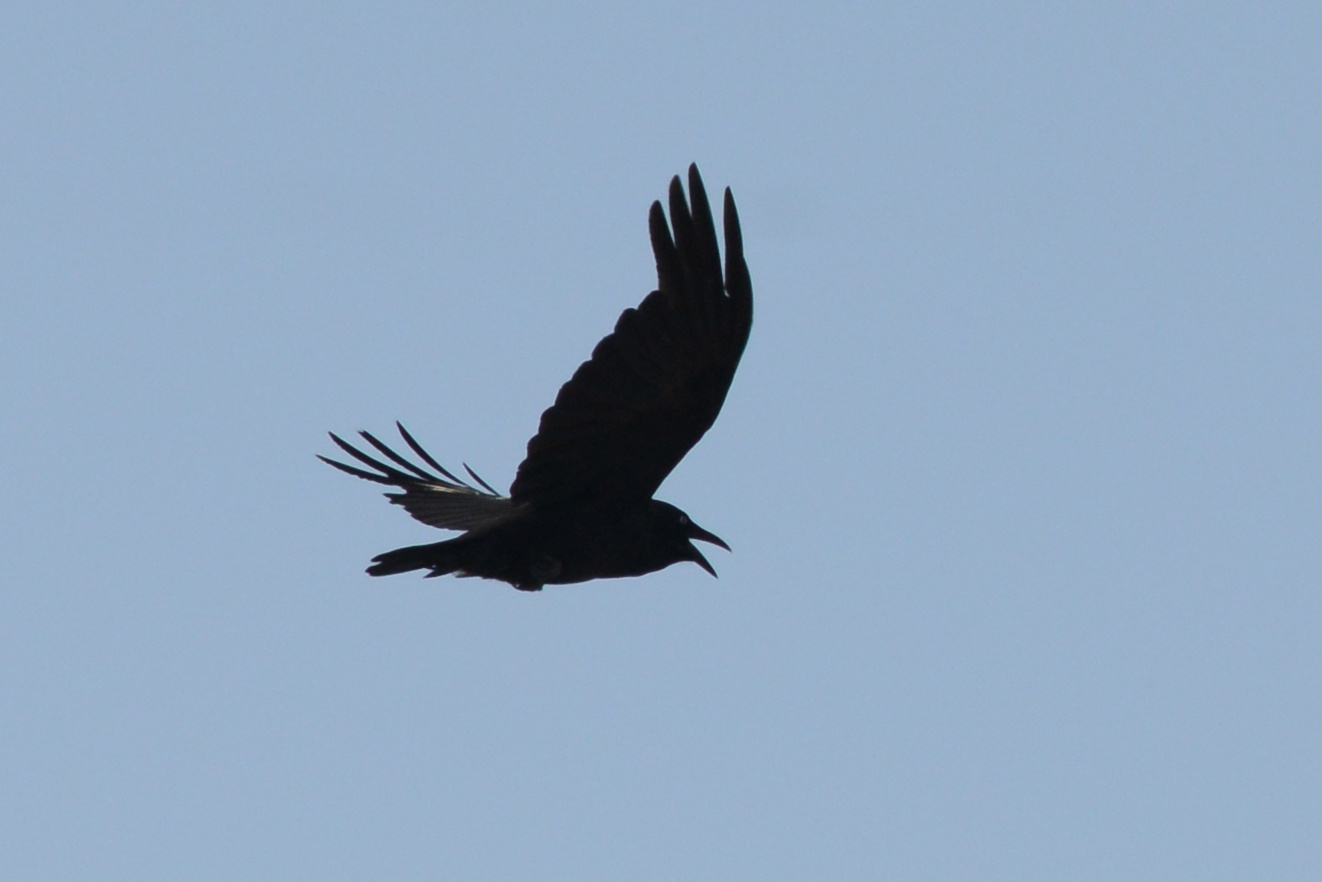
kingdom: Animalia
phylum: Chordata
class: Aves
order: Passeriformes
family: Corvidae
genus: Corvus
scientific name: Corvus tasmanicus
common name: Forest raven
